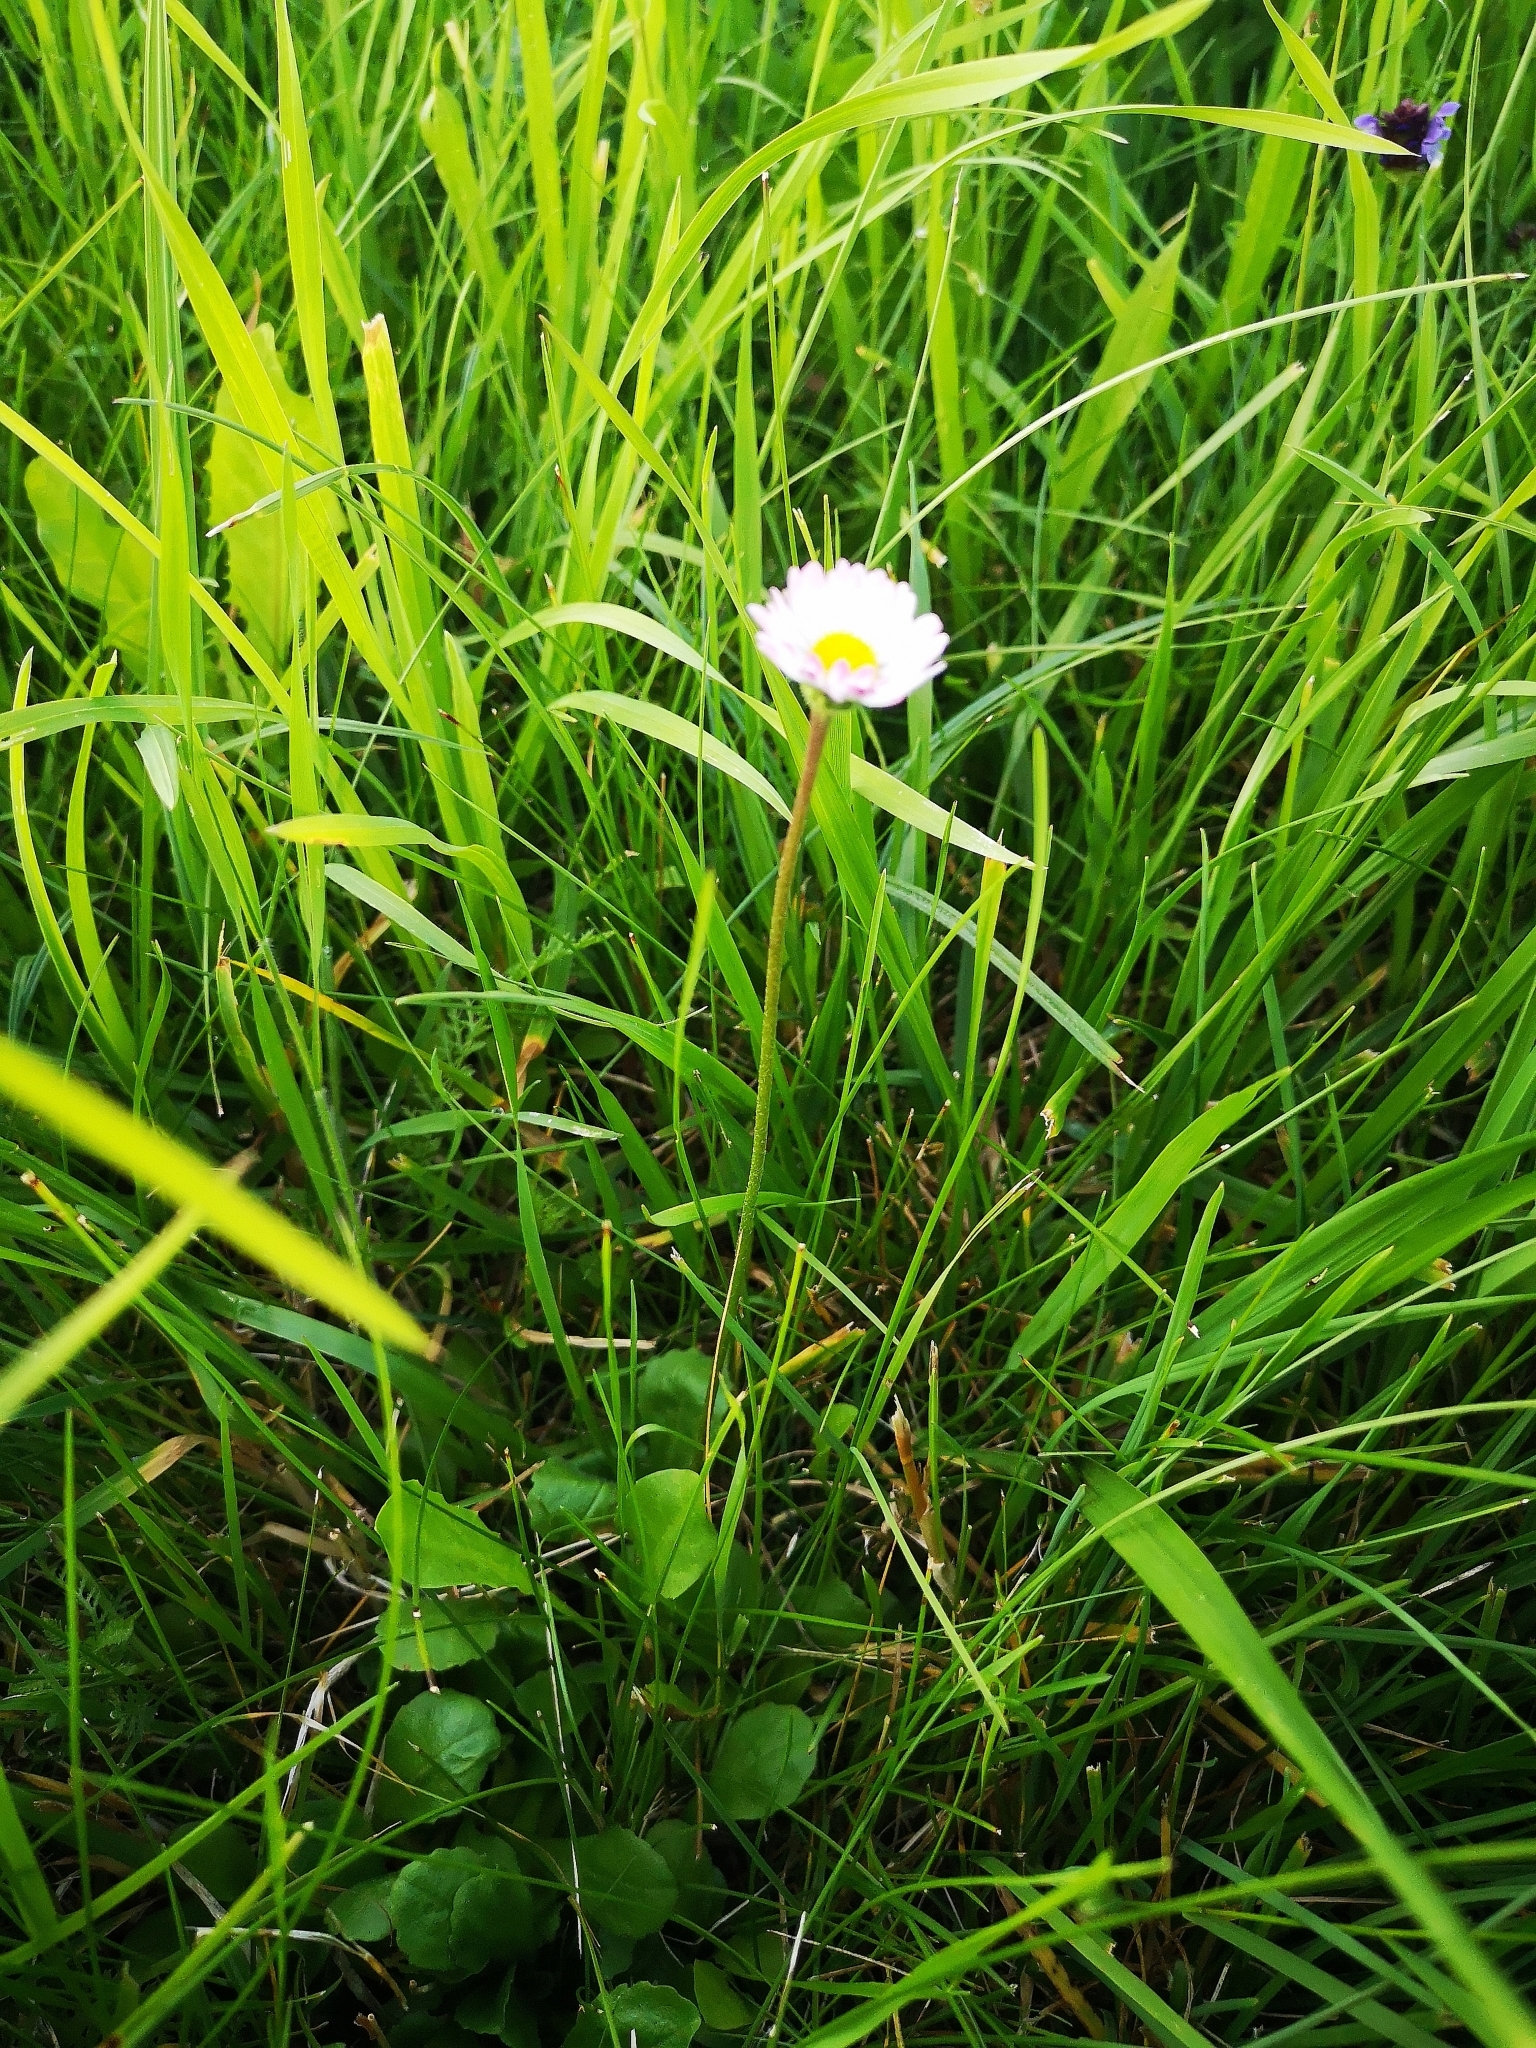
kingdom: Plantae
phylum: Tracheophyta
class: Magnoliopsida
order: Asterales
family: Asteraceae
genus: Bellis
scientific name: Bellis perennis
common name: Lawndaisy
